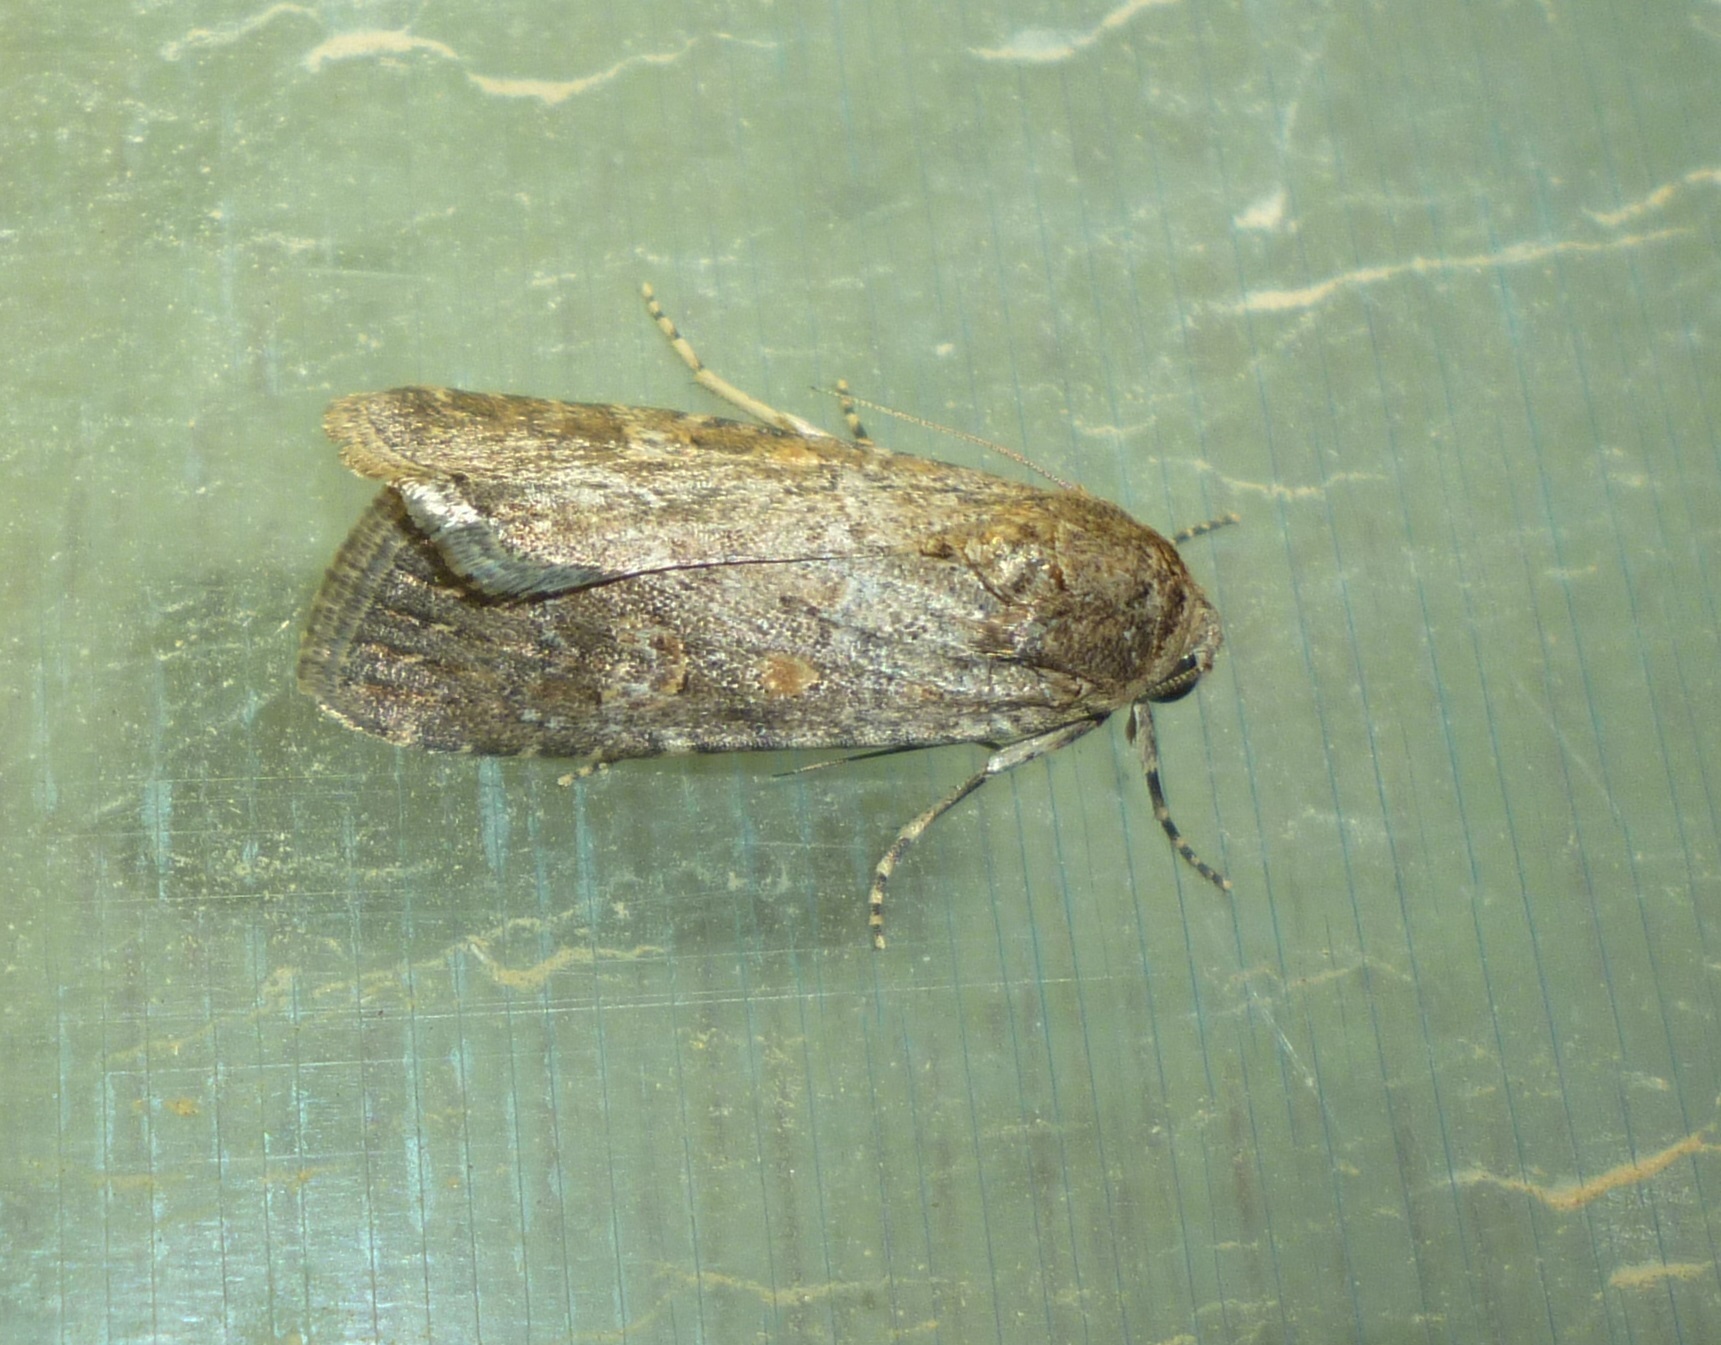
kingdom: Animalia
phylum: Arthropoda
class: Insecta
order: Lepidoptera
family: Noctuidae
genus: Spodoptera
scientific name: Spodoptera exigua
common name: Beet armyworm
